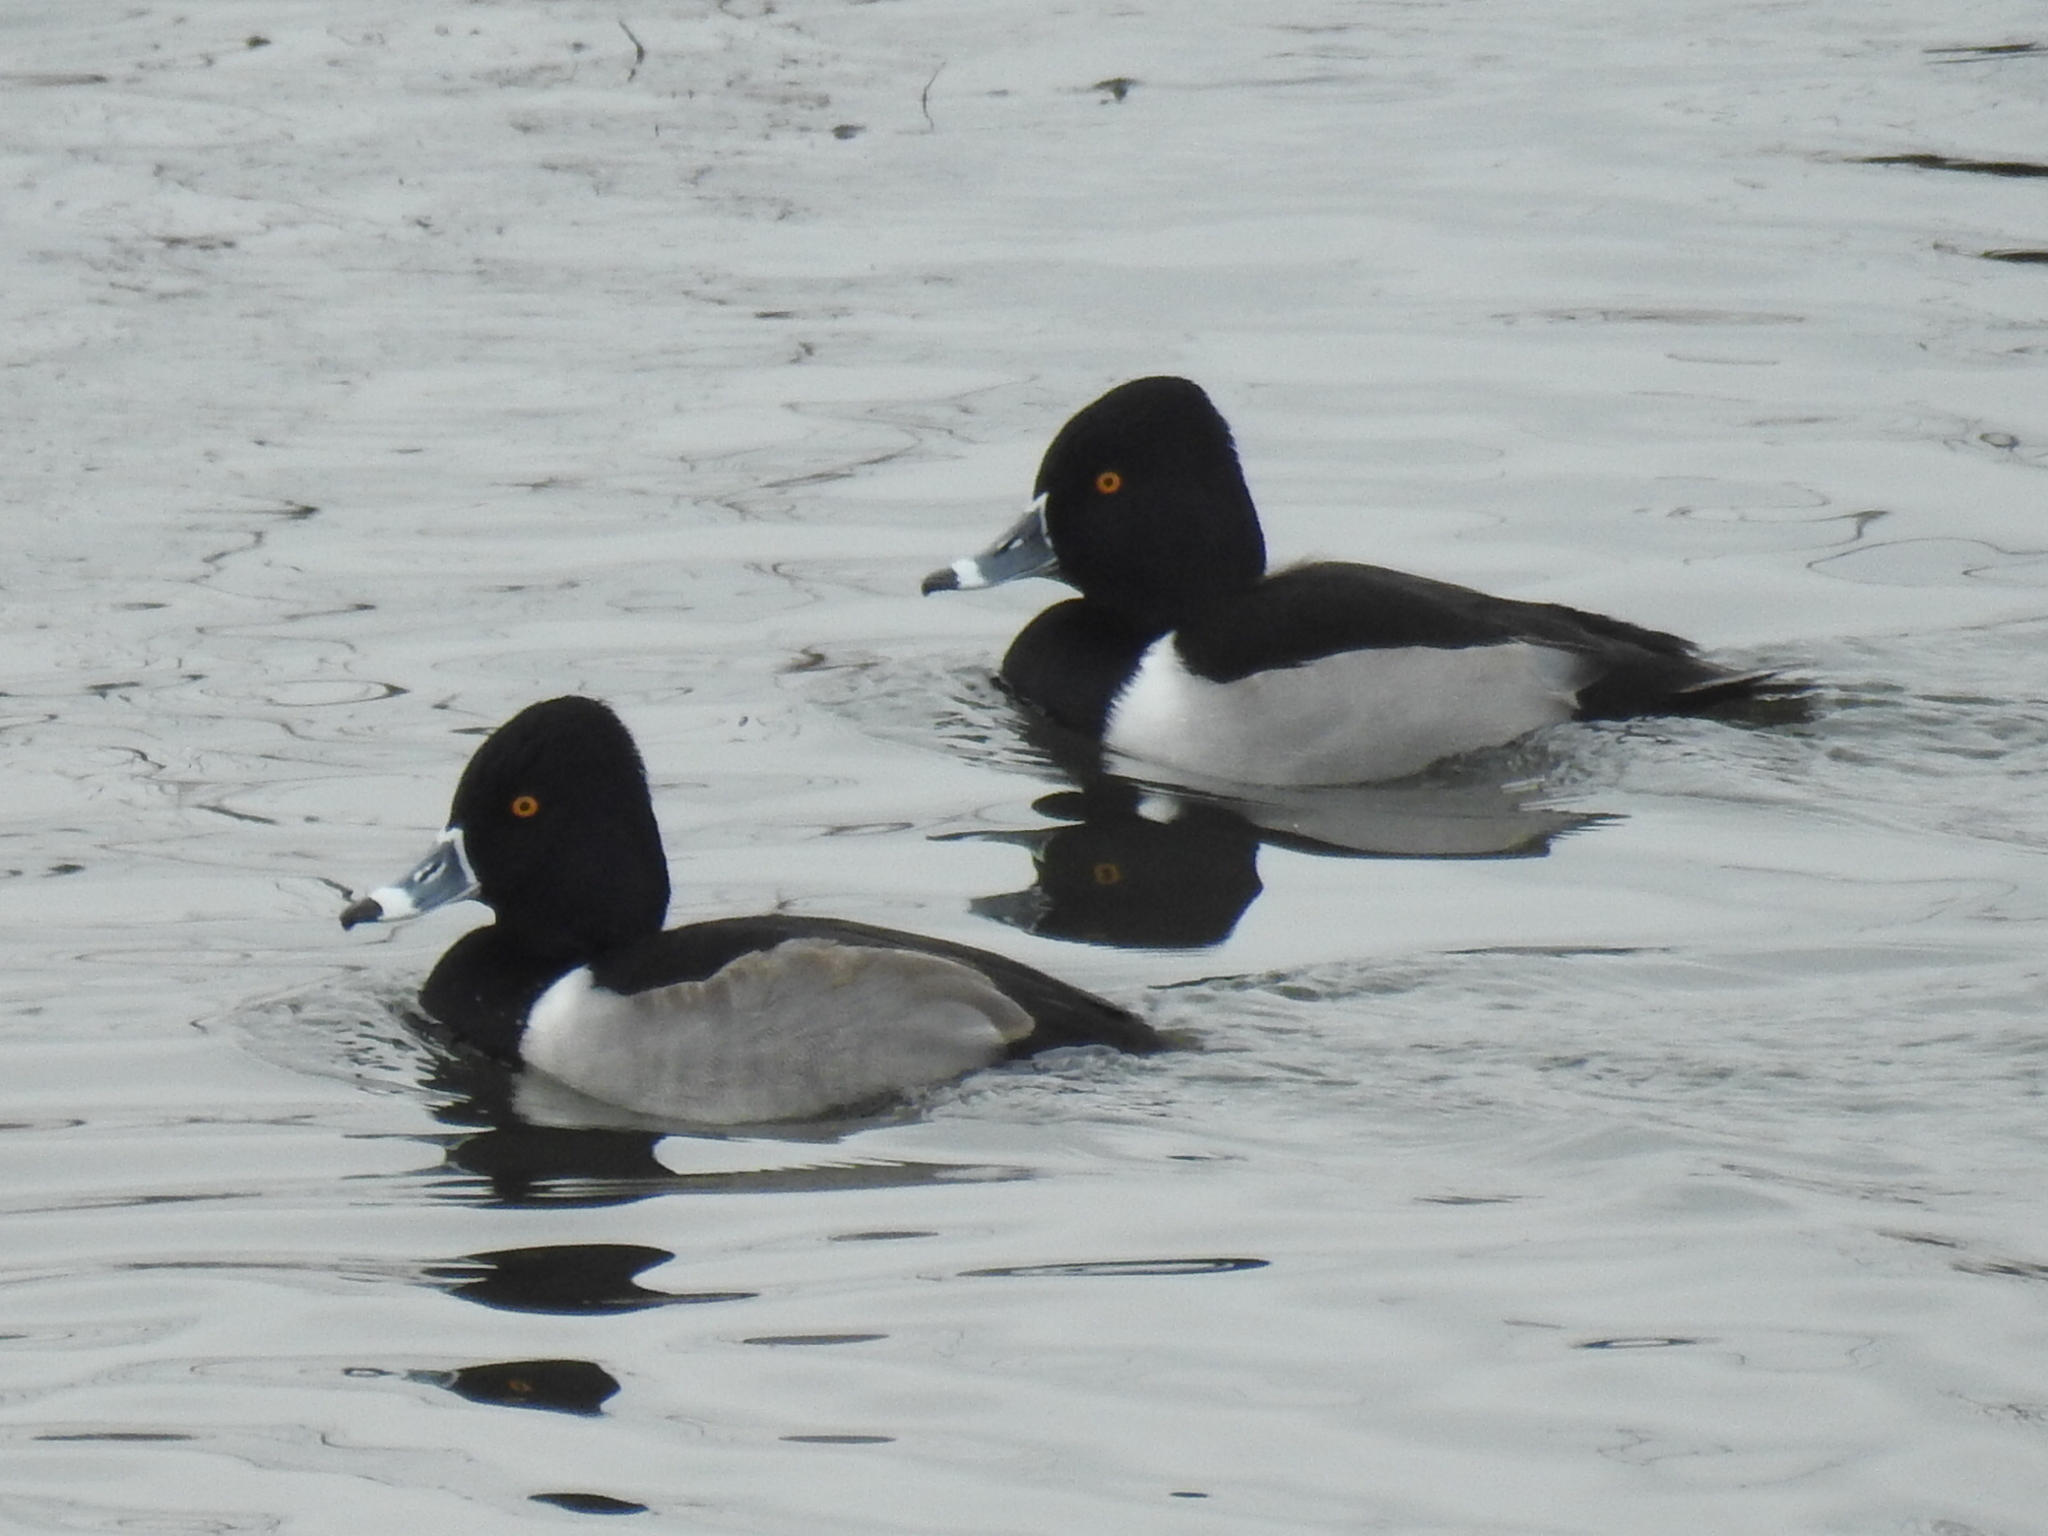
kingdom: Animalia
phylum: Chordata
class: Aves
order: Anseriformes
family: Anatidae
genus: Aythya
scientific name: Aythya collaris
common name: Ring-necked duck
